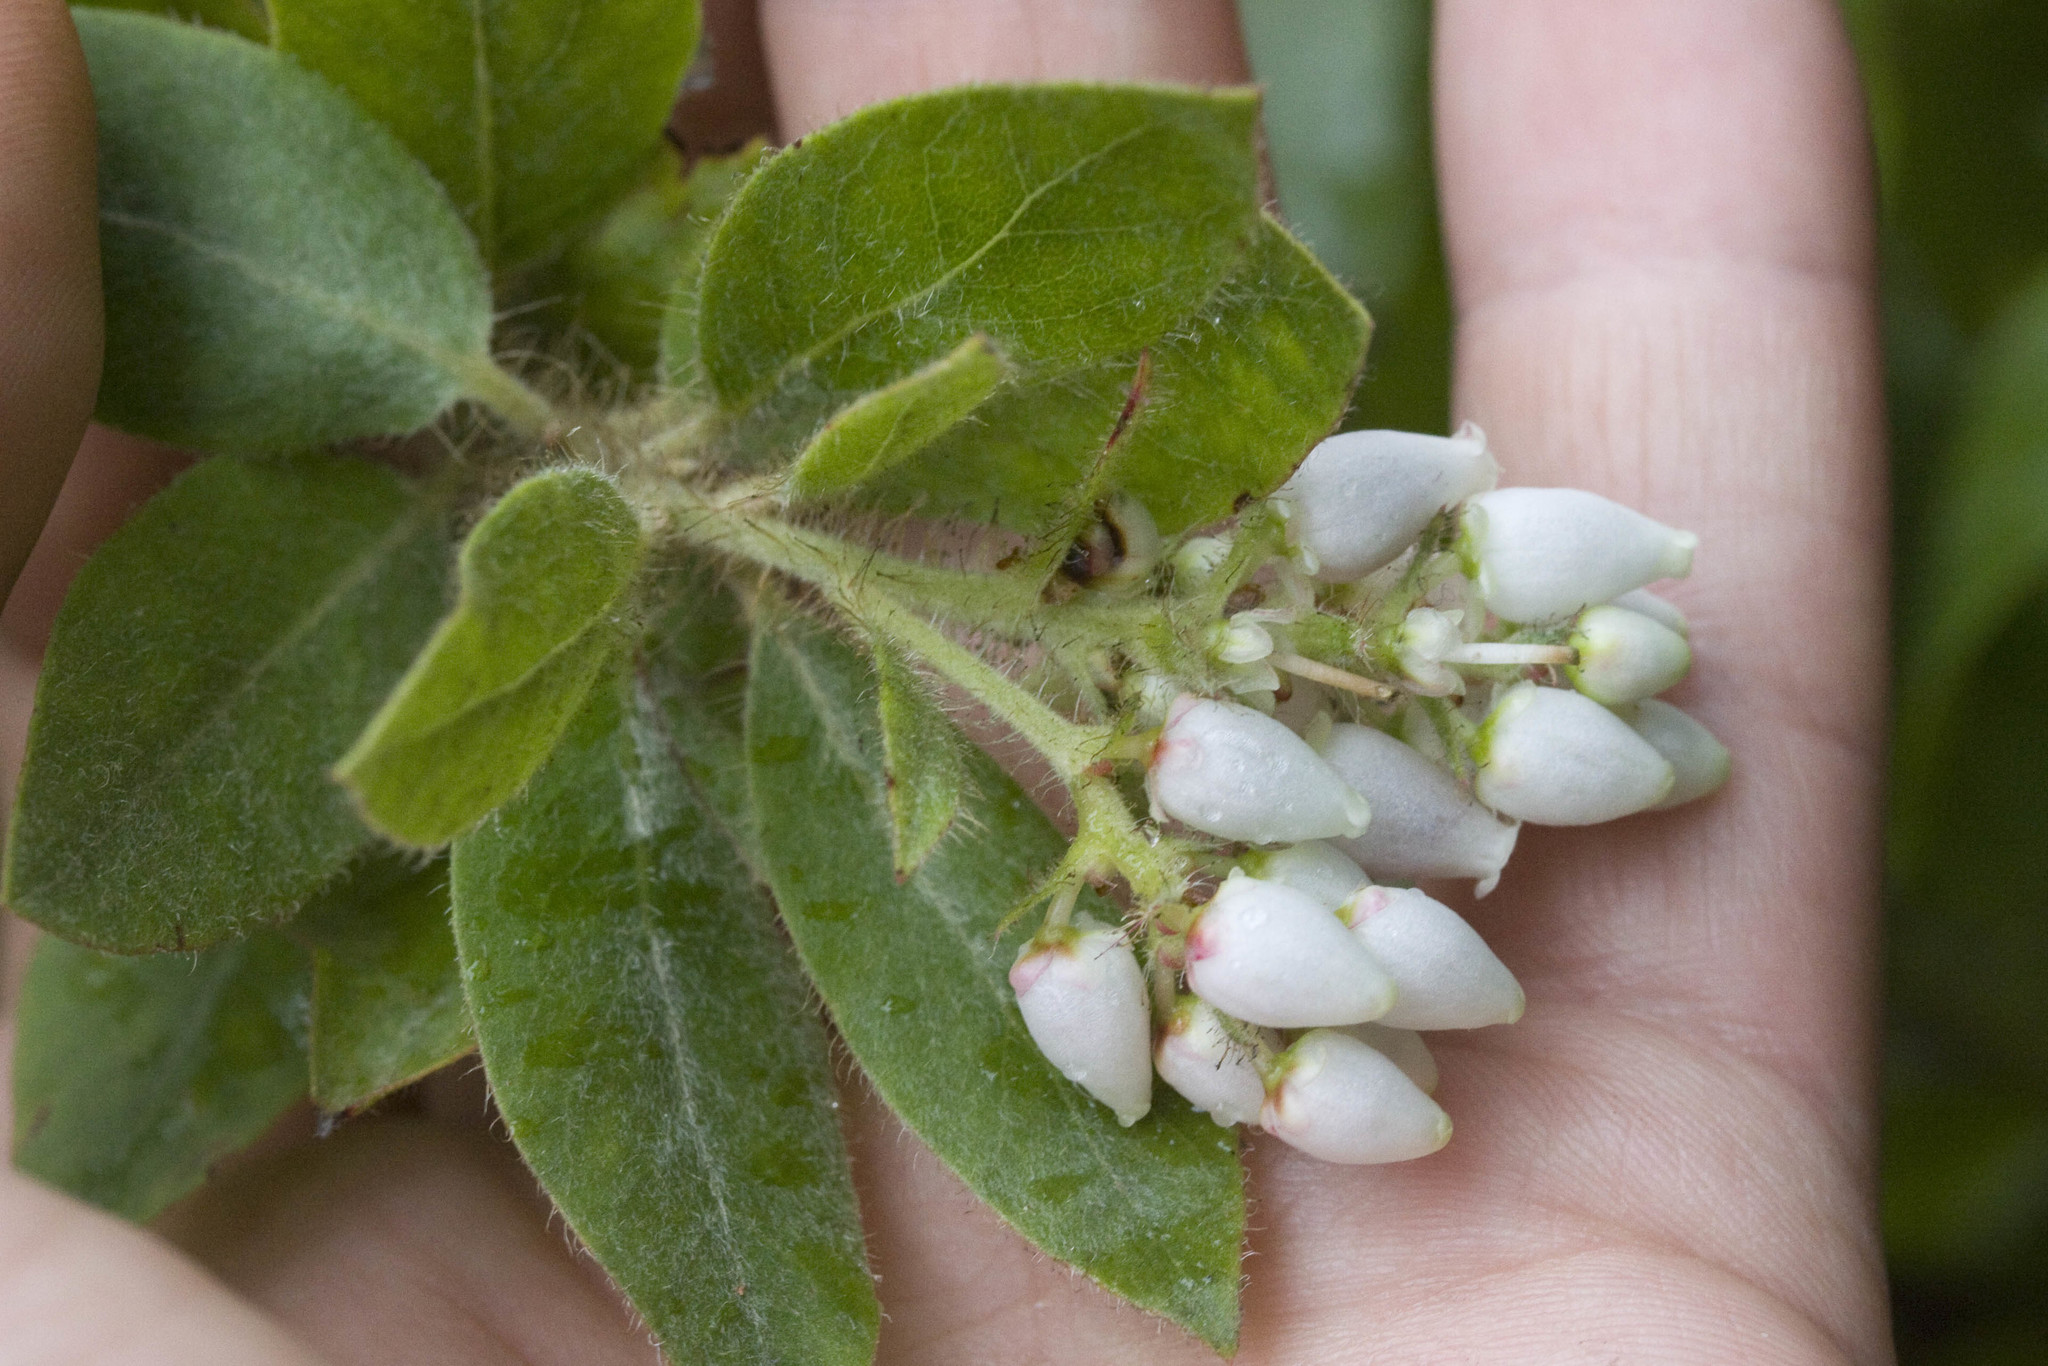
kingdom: Plantae
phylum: Tracheophyta
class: Magnoliopsida
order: Ericales
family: Ericaceae
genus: Arctostaphylos
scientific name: Arctostaphylos columbiana
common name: Bristly bearberry
